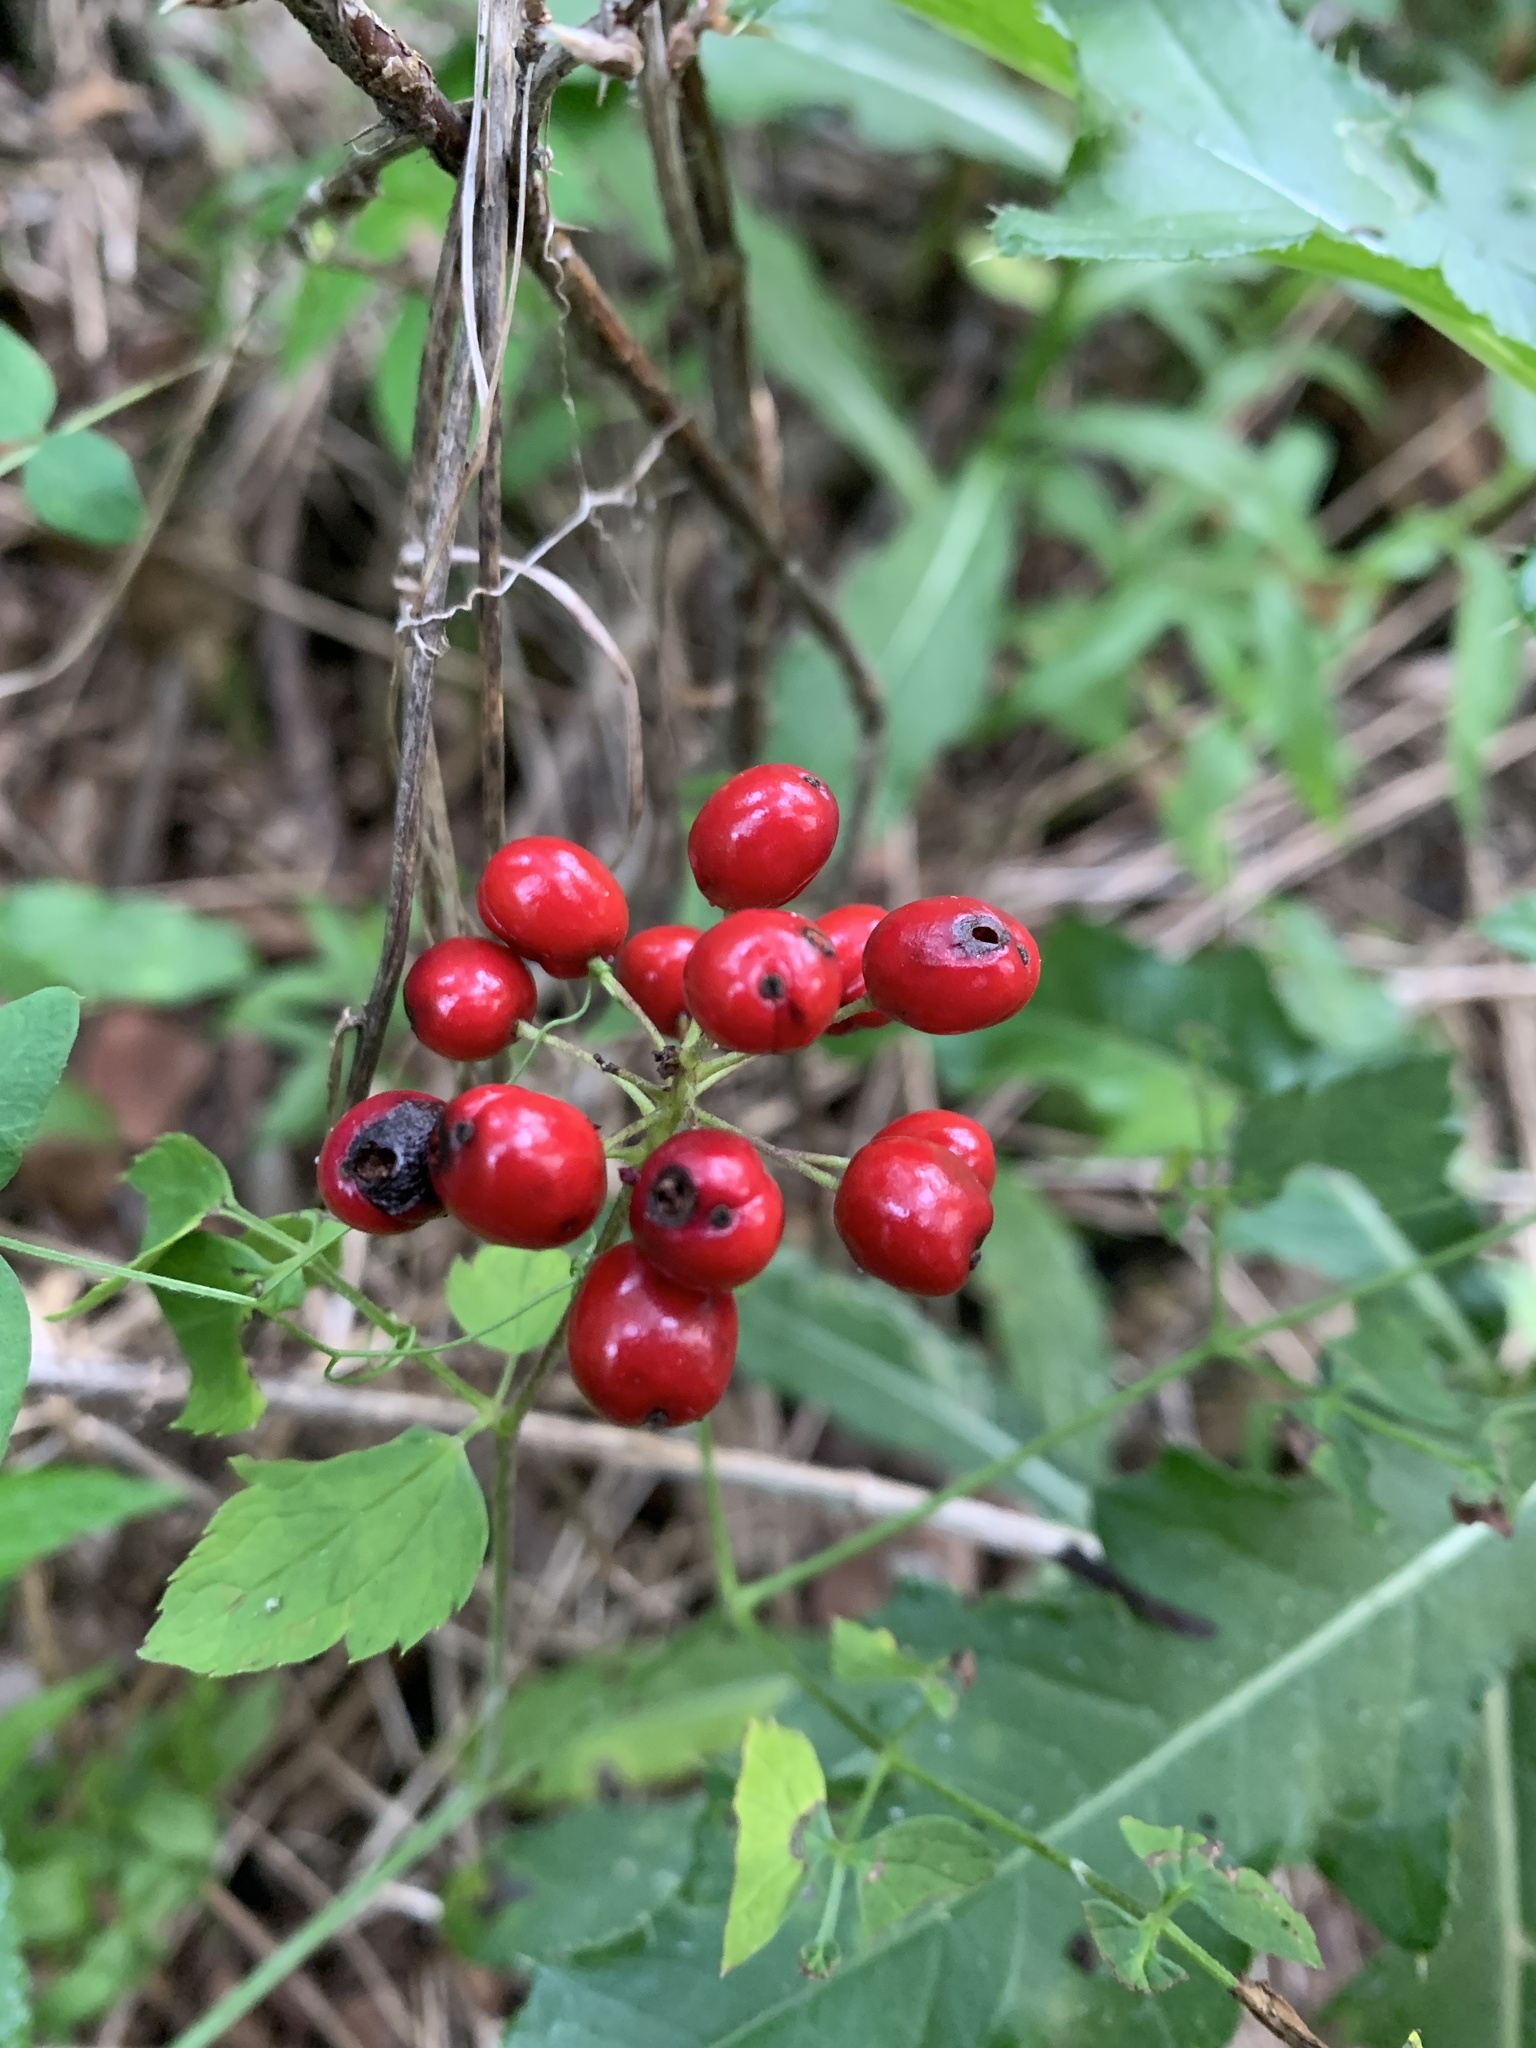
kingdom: Plantae
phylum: Tracheophyta
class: Magnoliopsida
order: Ranunculales
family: Ranunculaceae
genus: Actaea
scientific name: Actaea rubra
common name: Red baneberry
